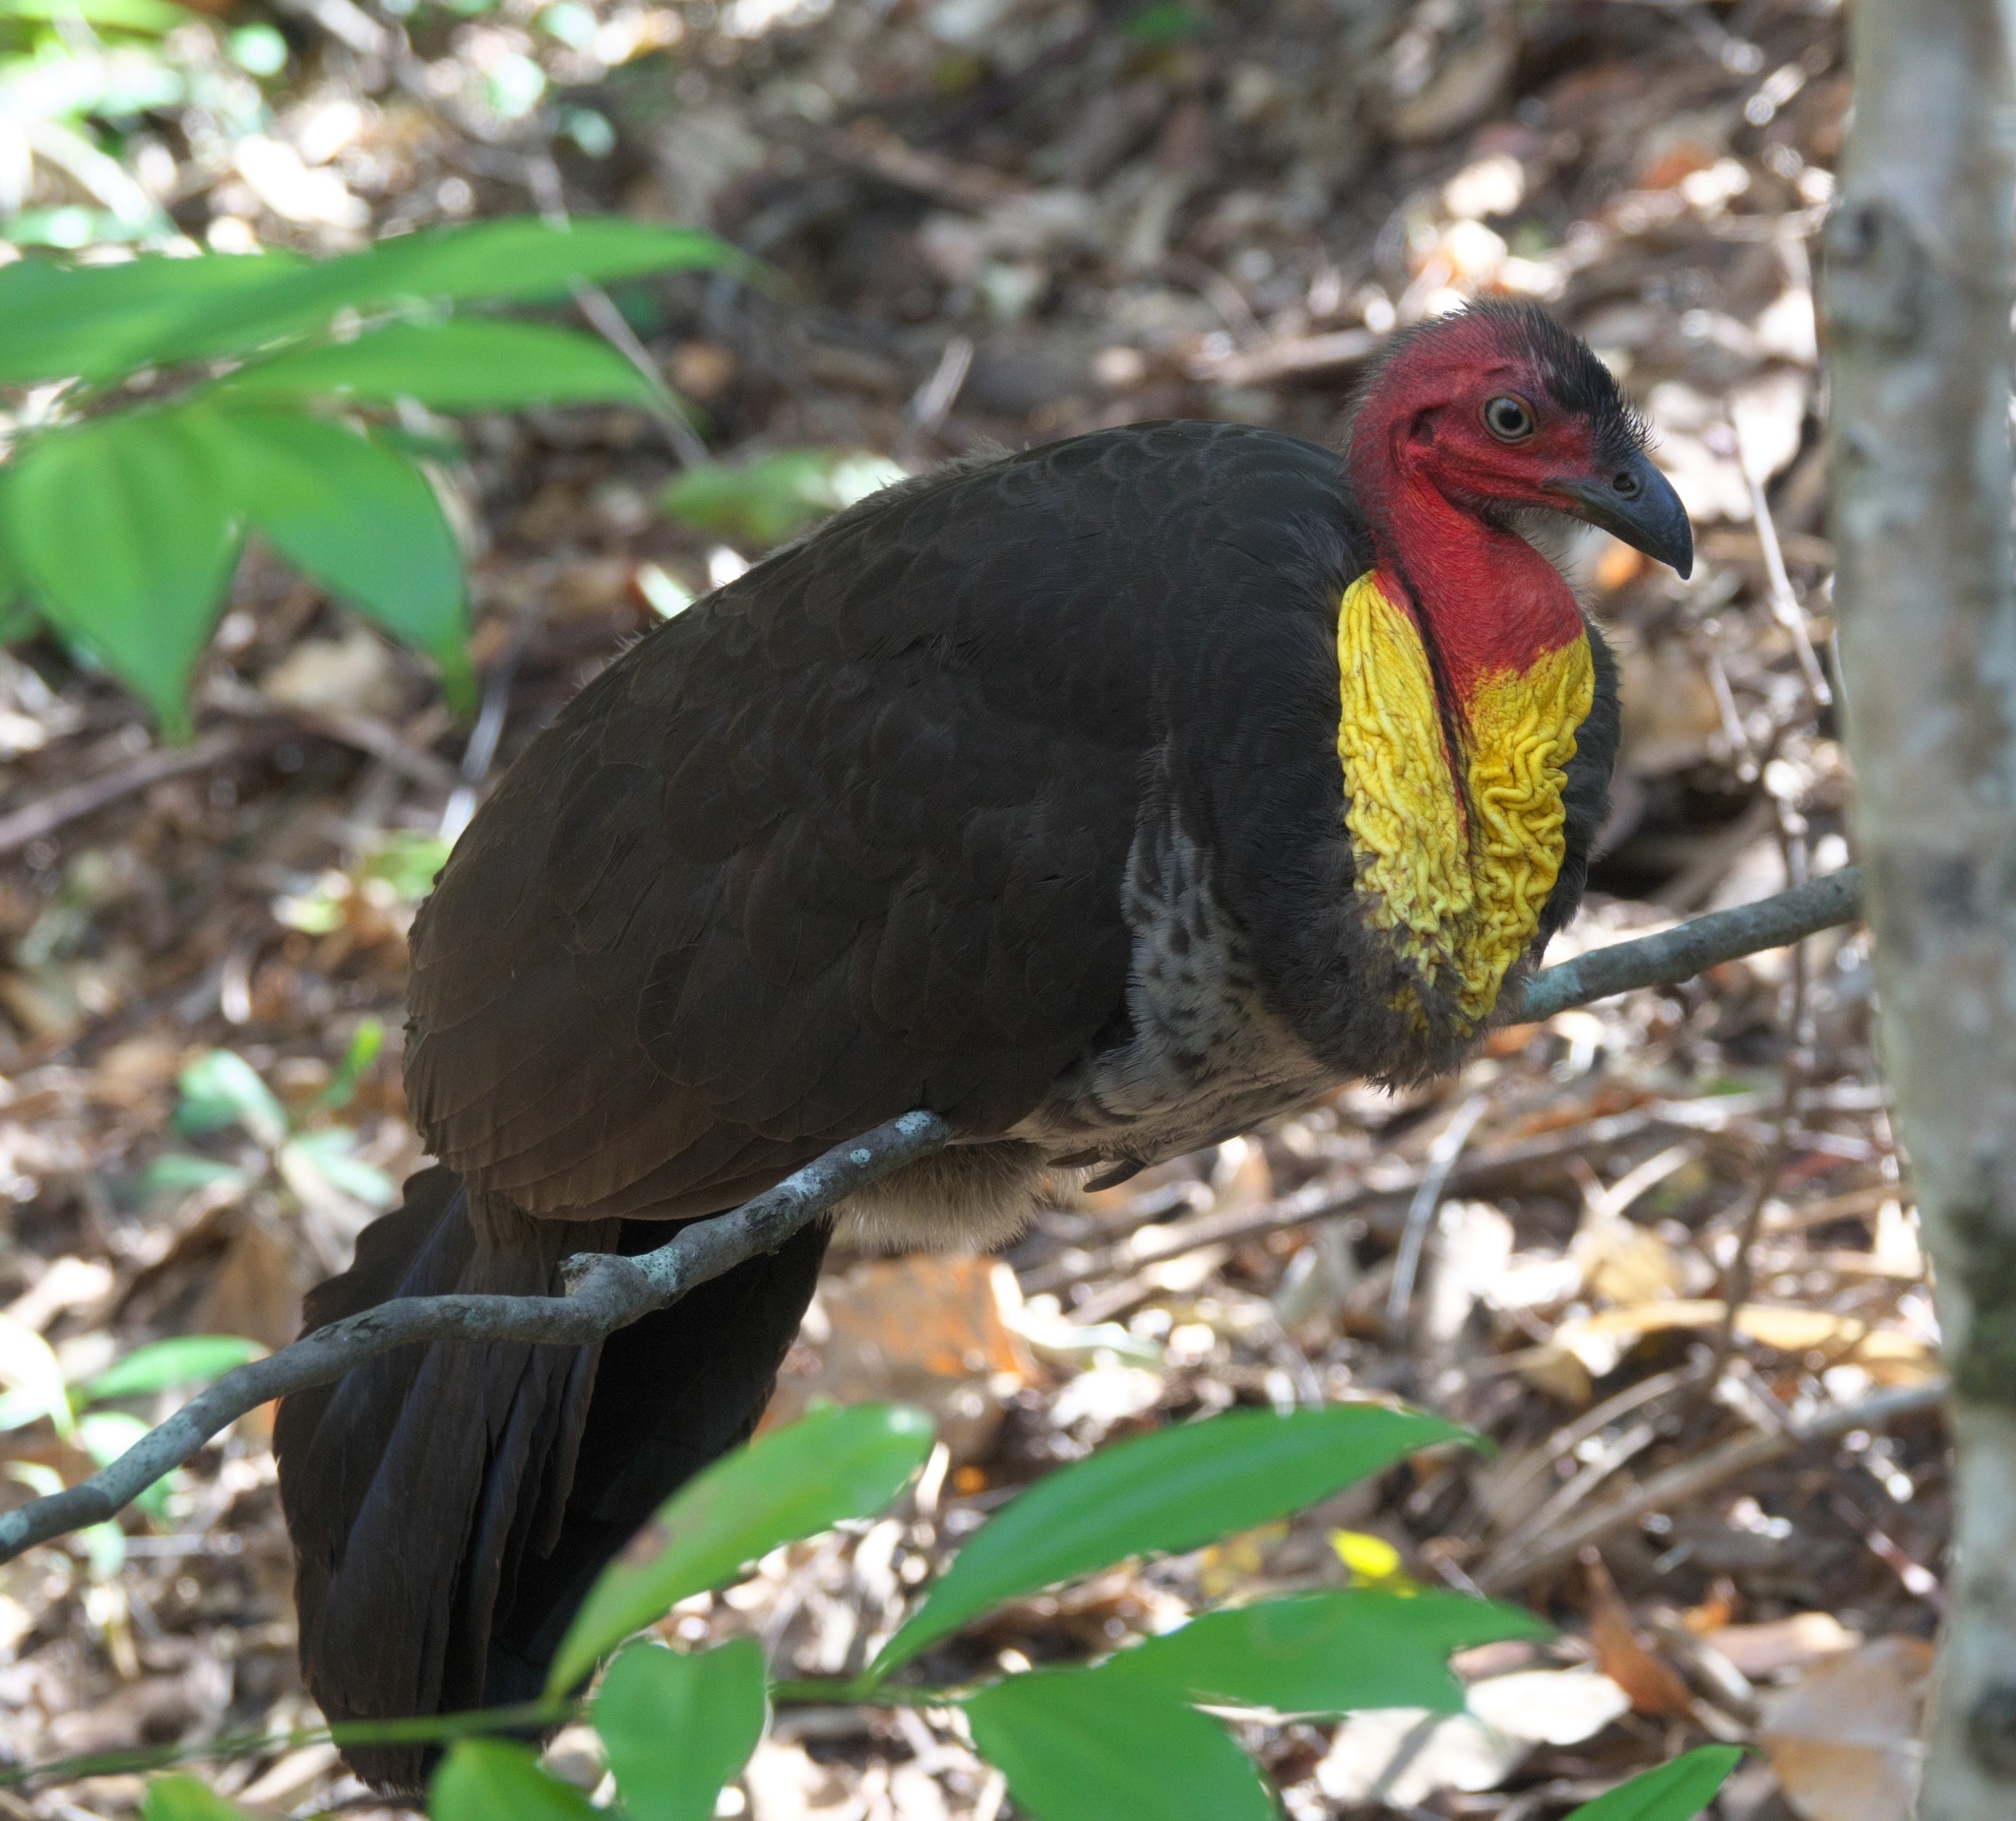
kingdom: Animalia
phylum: Chordata
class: Aves
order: Galliformes
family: Megapodiidae
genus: Alectura
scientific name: Alectura lathami
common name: Australian brushturkey
